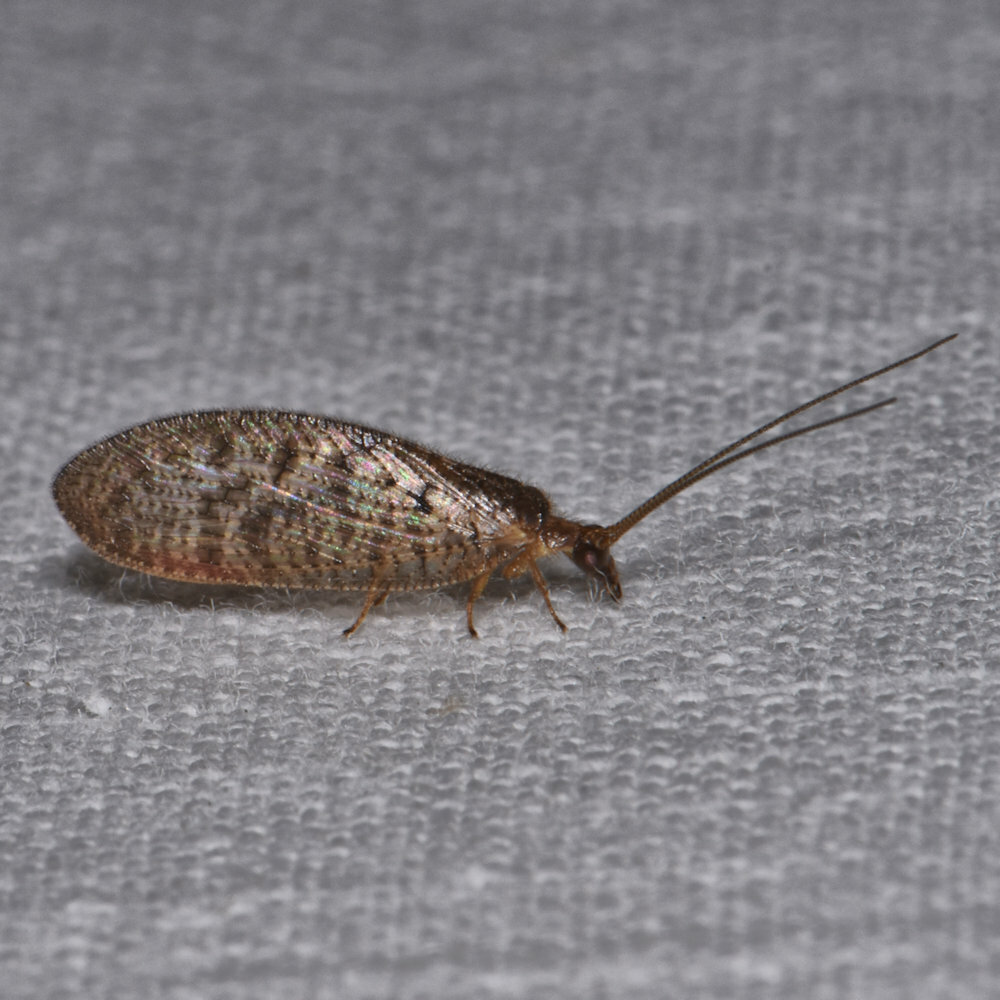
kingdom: Animalia
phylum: Arthropoda
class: Insecta
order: Neuroptera
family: Hemerobiidae
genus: Hemerobius
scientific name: Hemerobius stigma
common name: Brown pine lacewing
